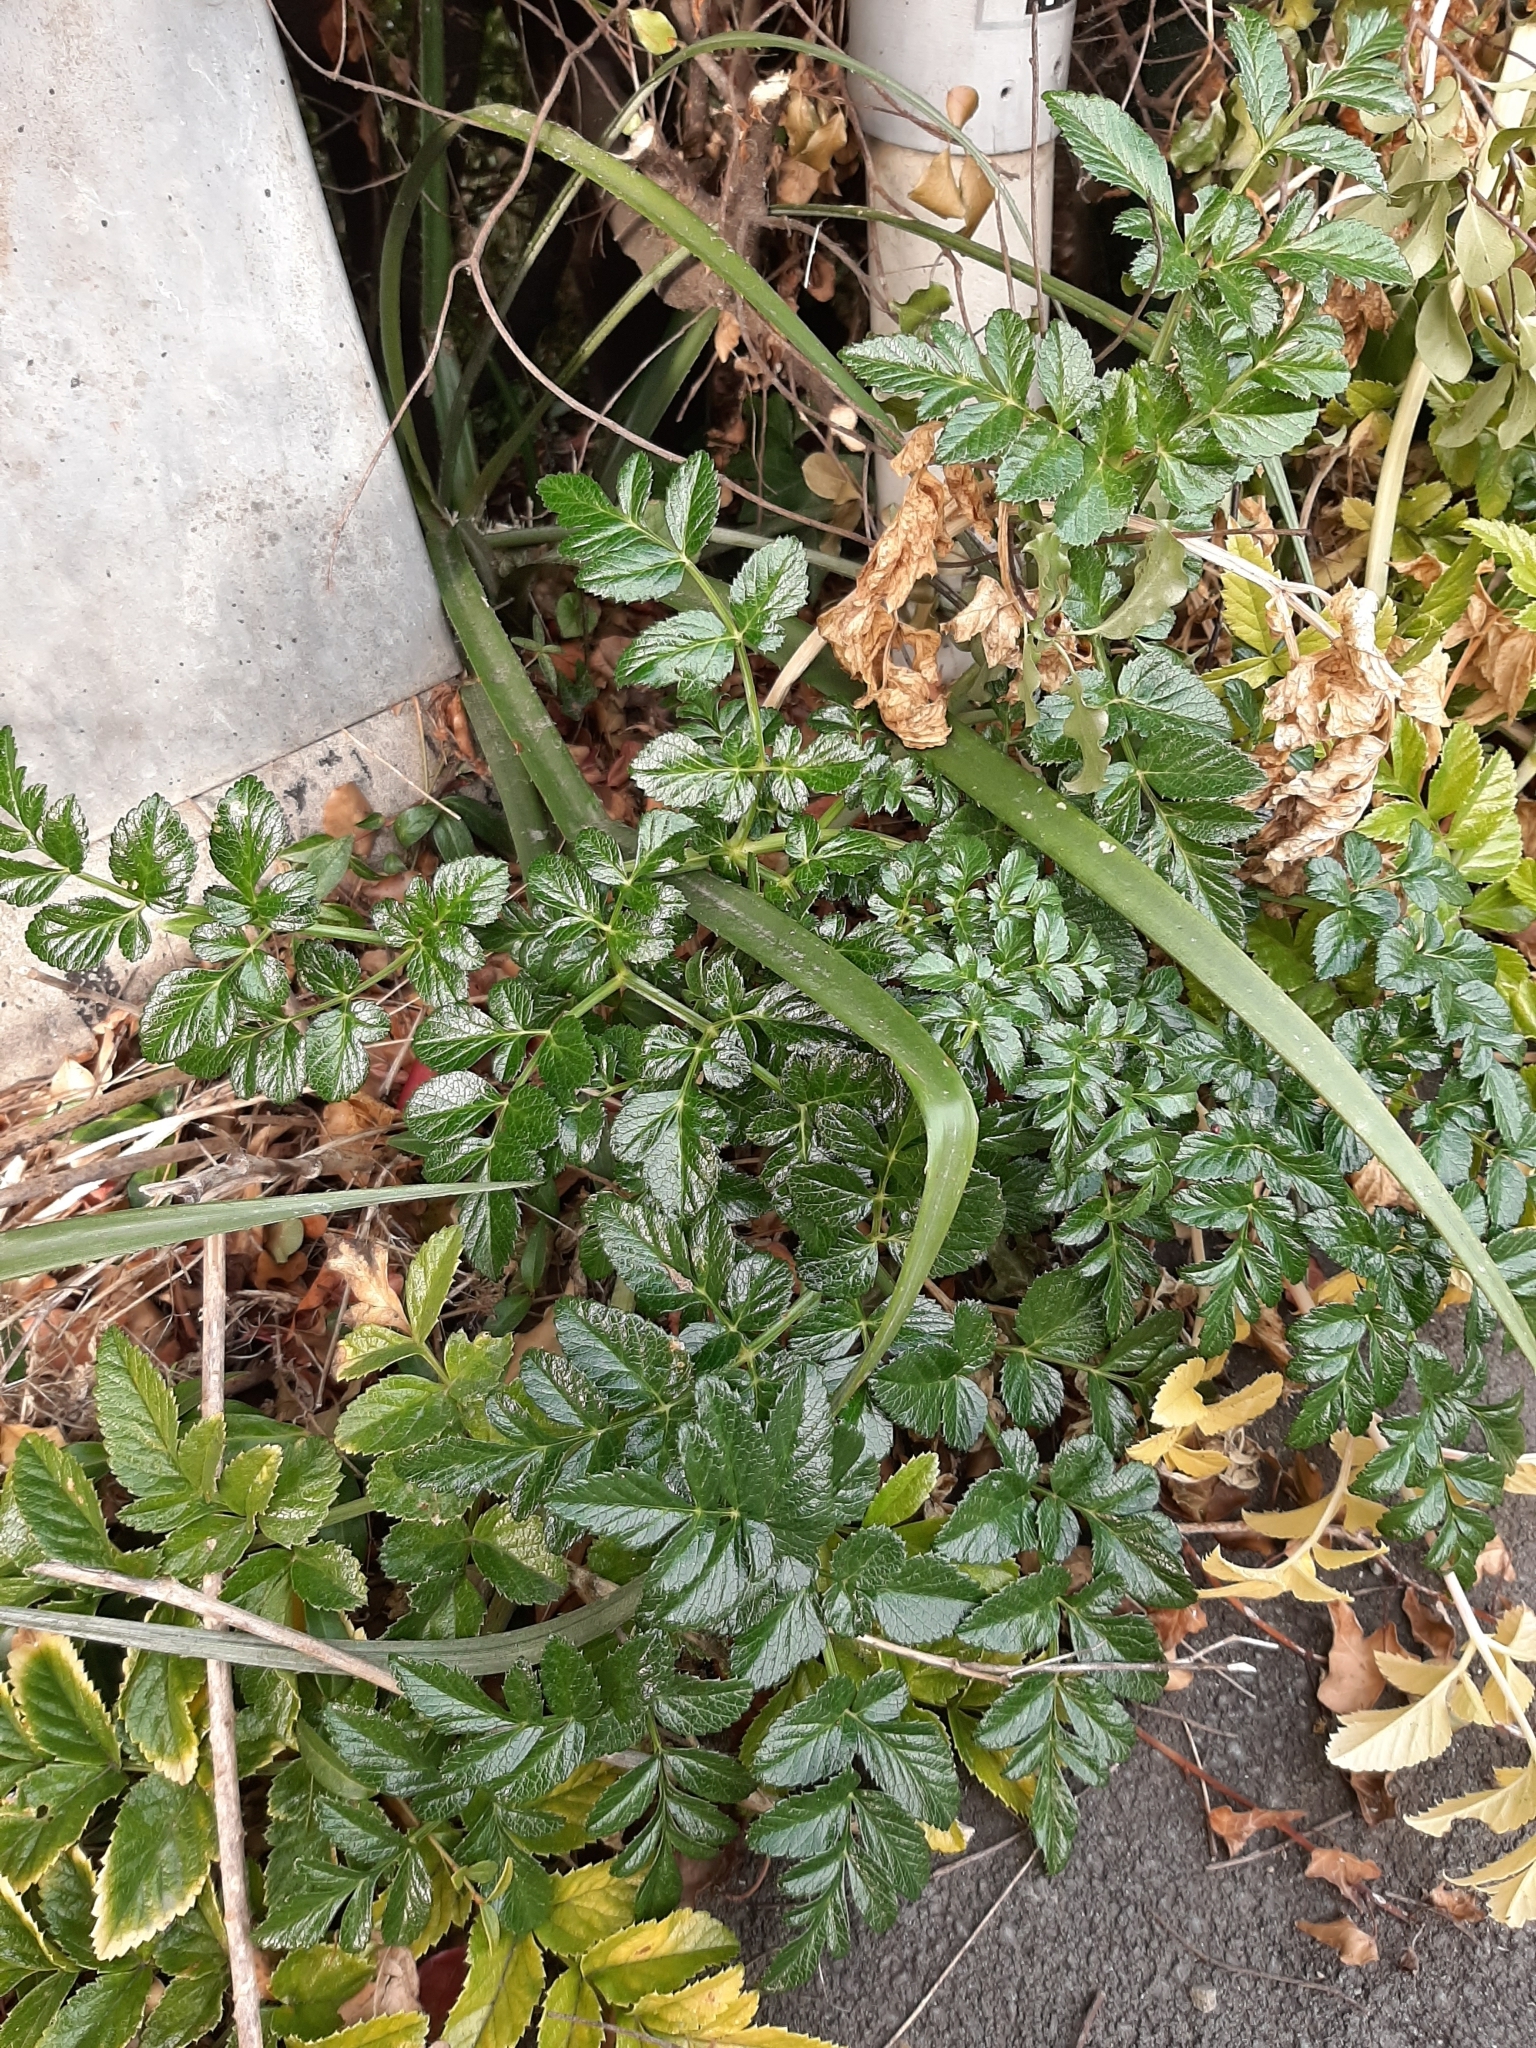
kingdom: Plantae
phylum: Tracheophyta
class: Magnoliopsida
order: Apiales
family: Apiaceae
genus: Angelica
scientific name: Angelica pachycarpa
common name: Portuguese angelica
